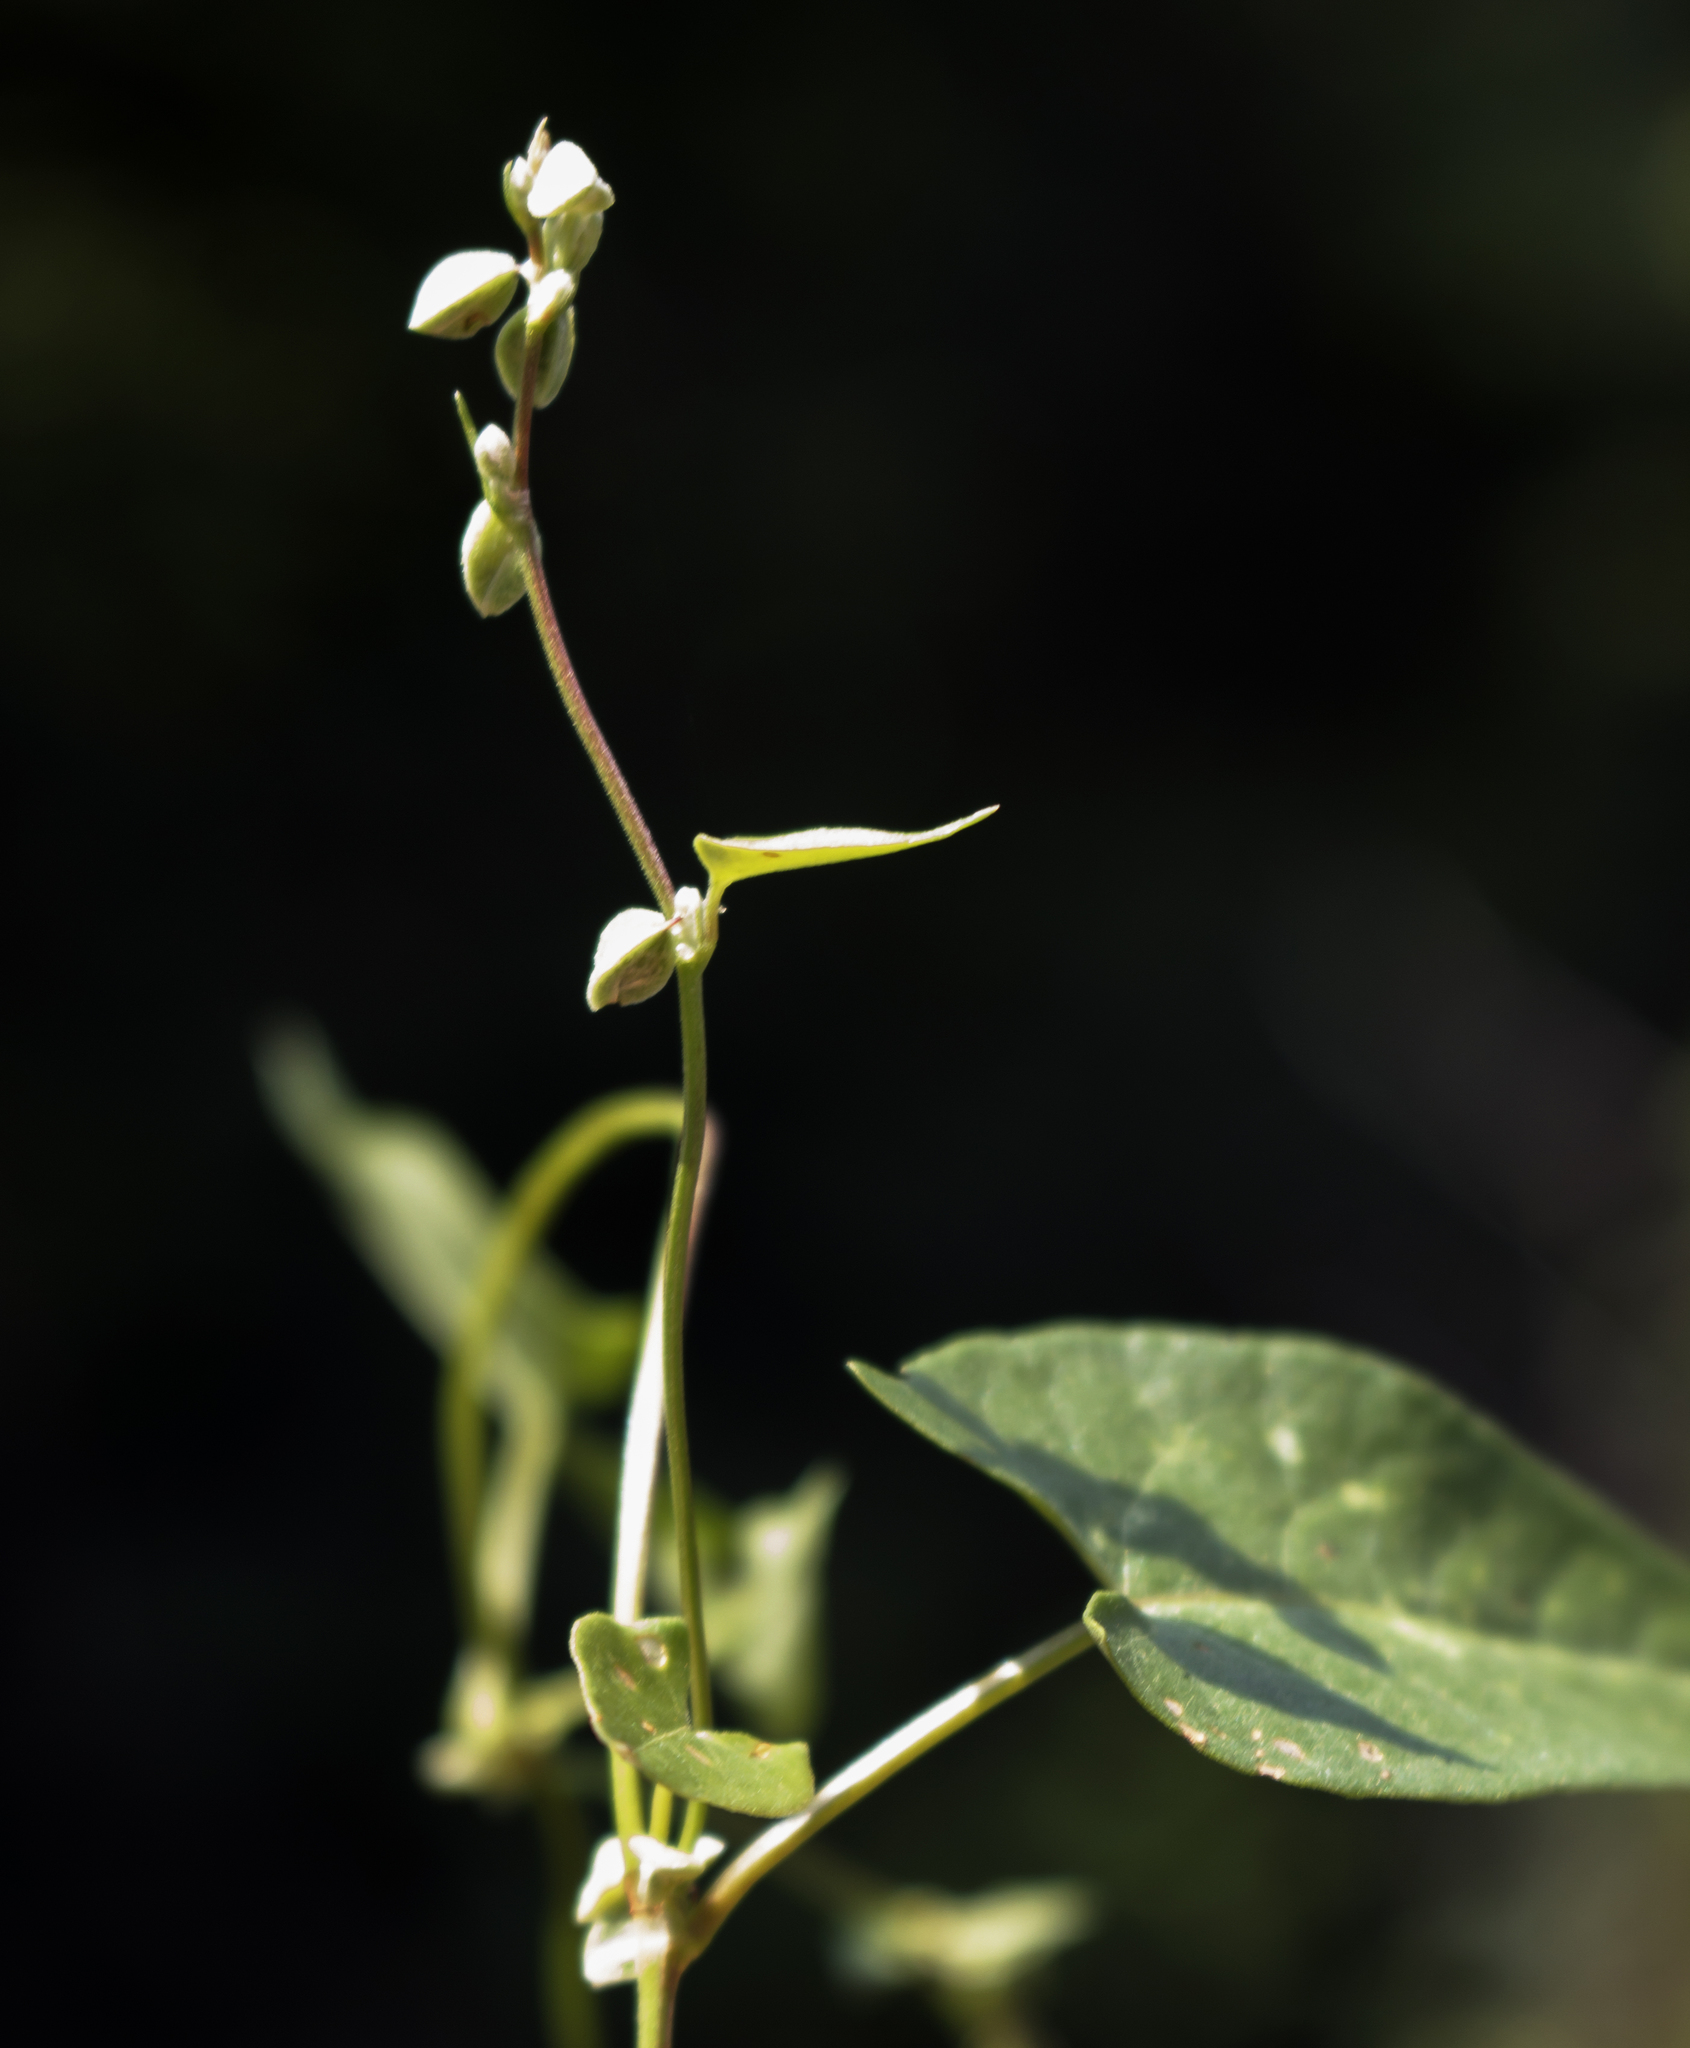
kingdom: Plantae
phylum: Tracheophyta
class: Magnoliopsida
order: Caryophyllales
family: Polygonaceae
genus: Fallopia
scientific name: Fallopia convolvulus
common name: Black bindweed
